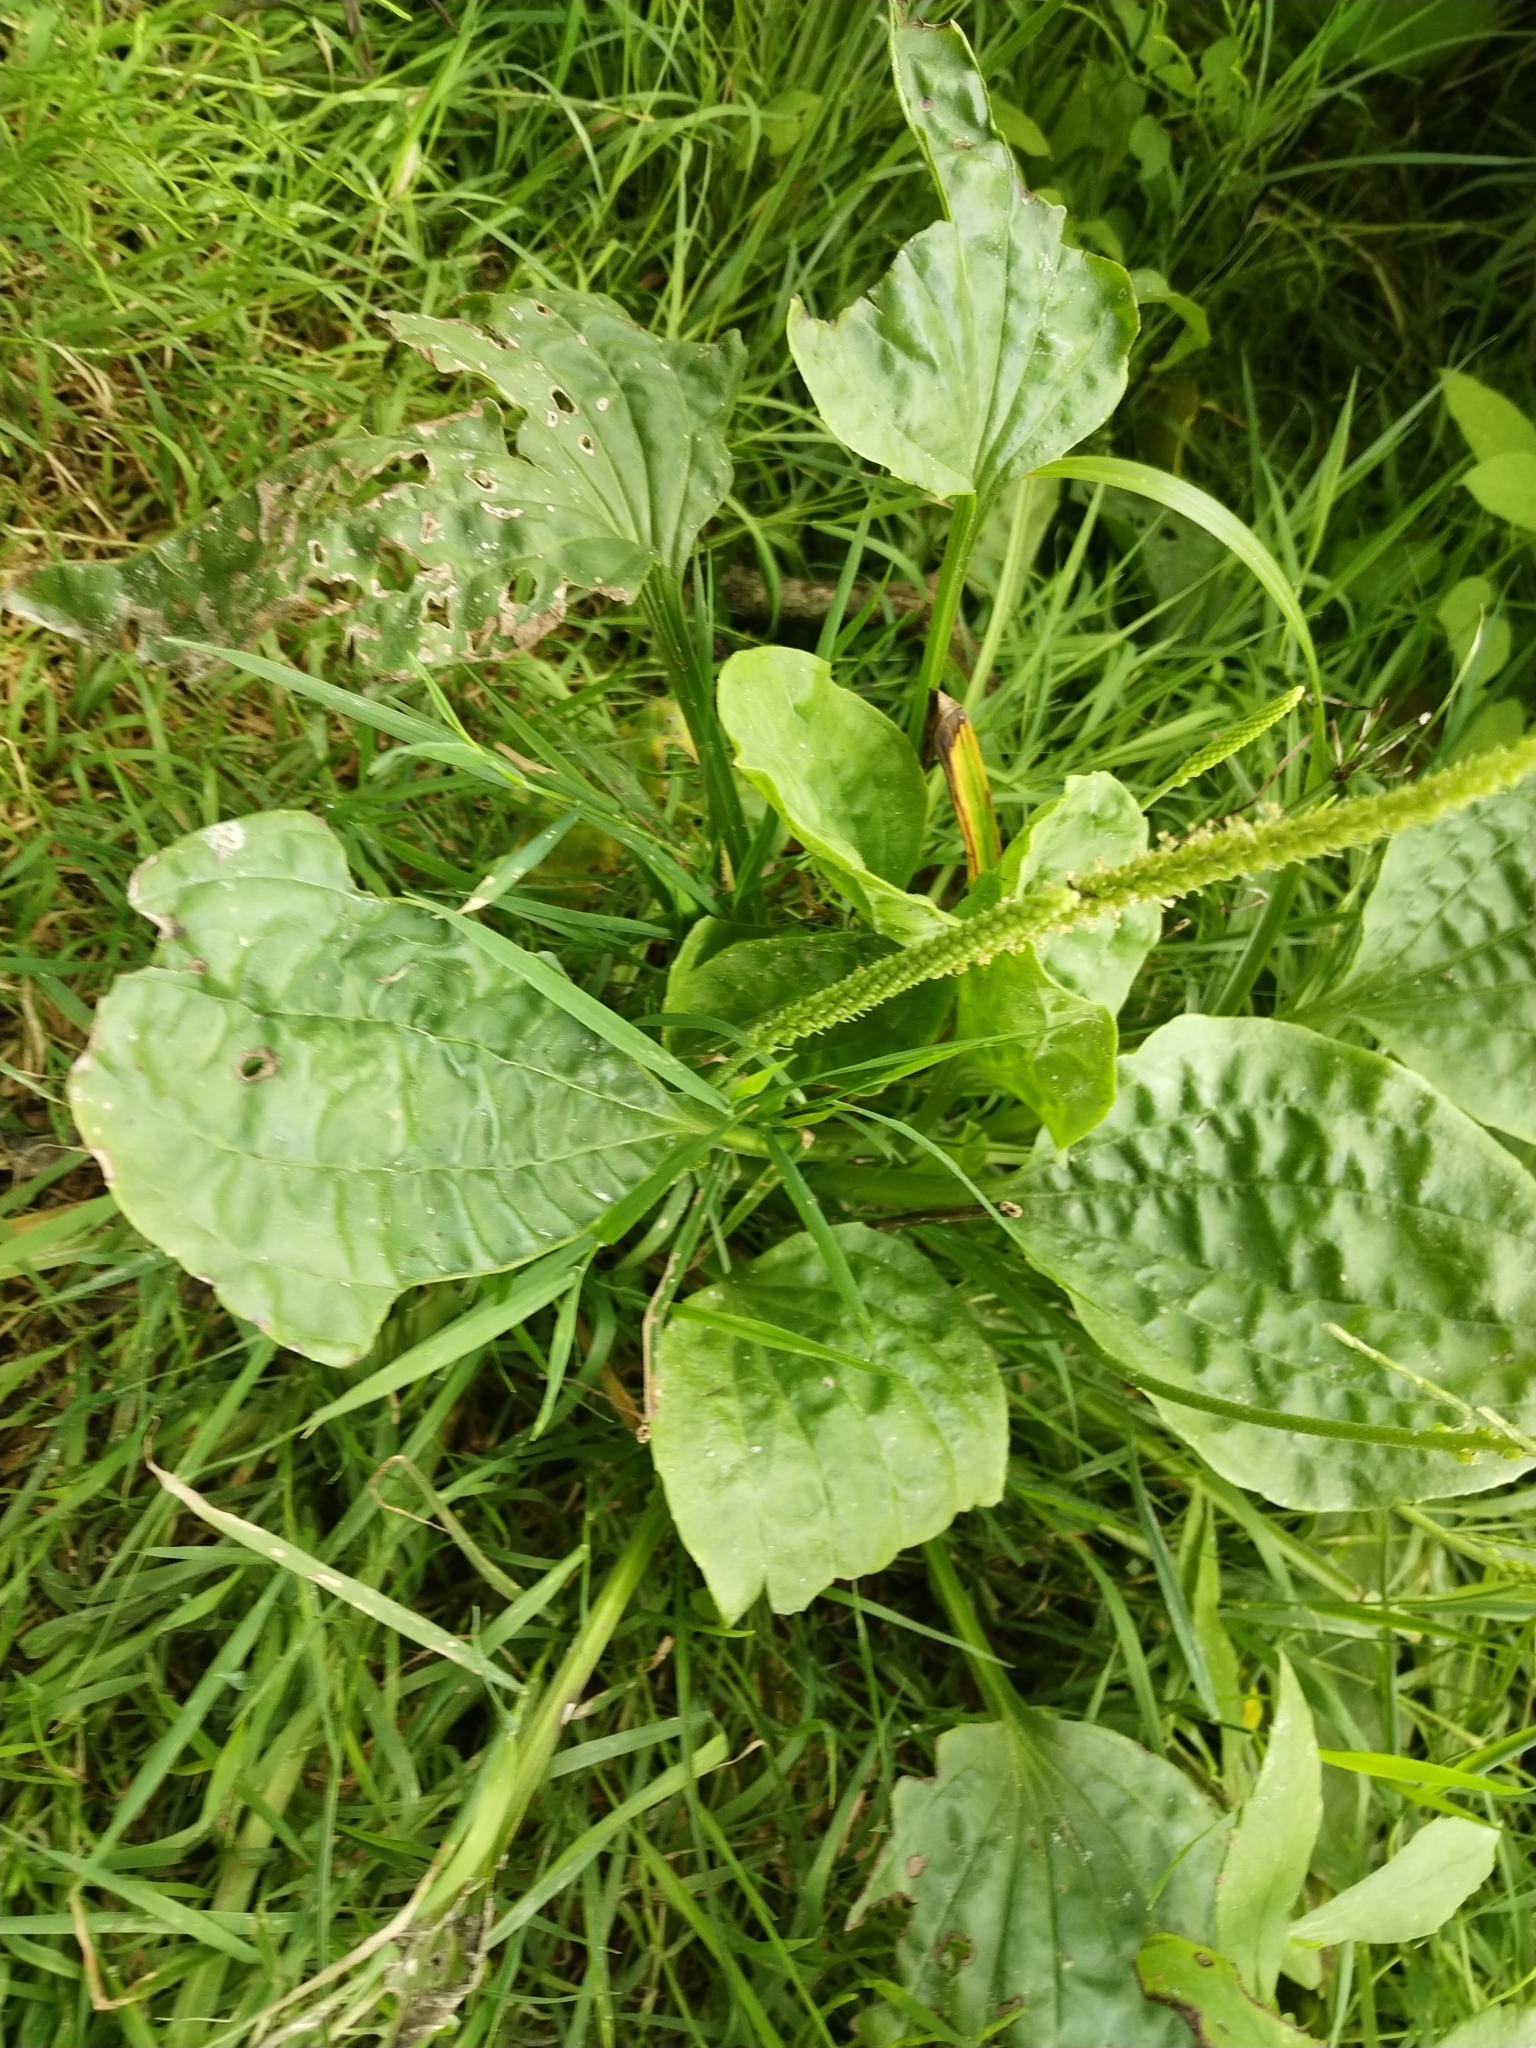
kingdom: Plantae
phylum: Tracheophyta
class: Magnoliopsida
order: Lamiales
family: Plantaginaceae
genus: Plantago
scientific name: Plantago major
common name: Common plantain
